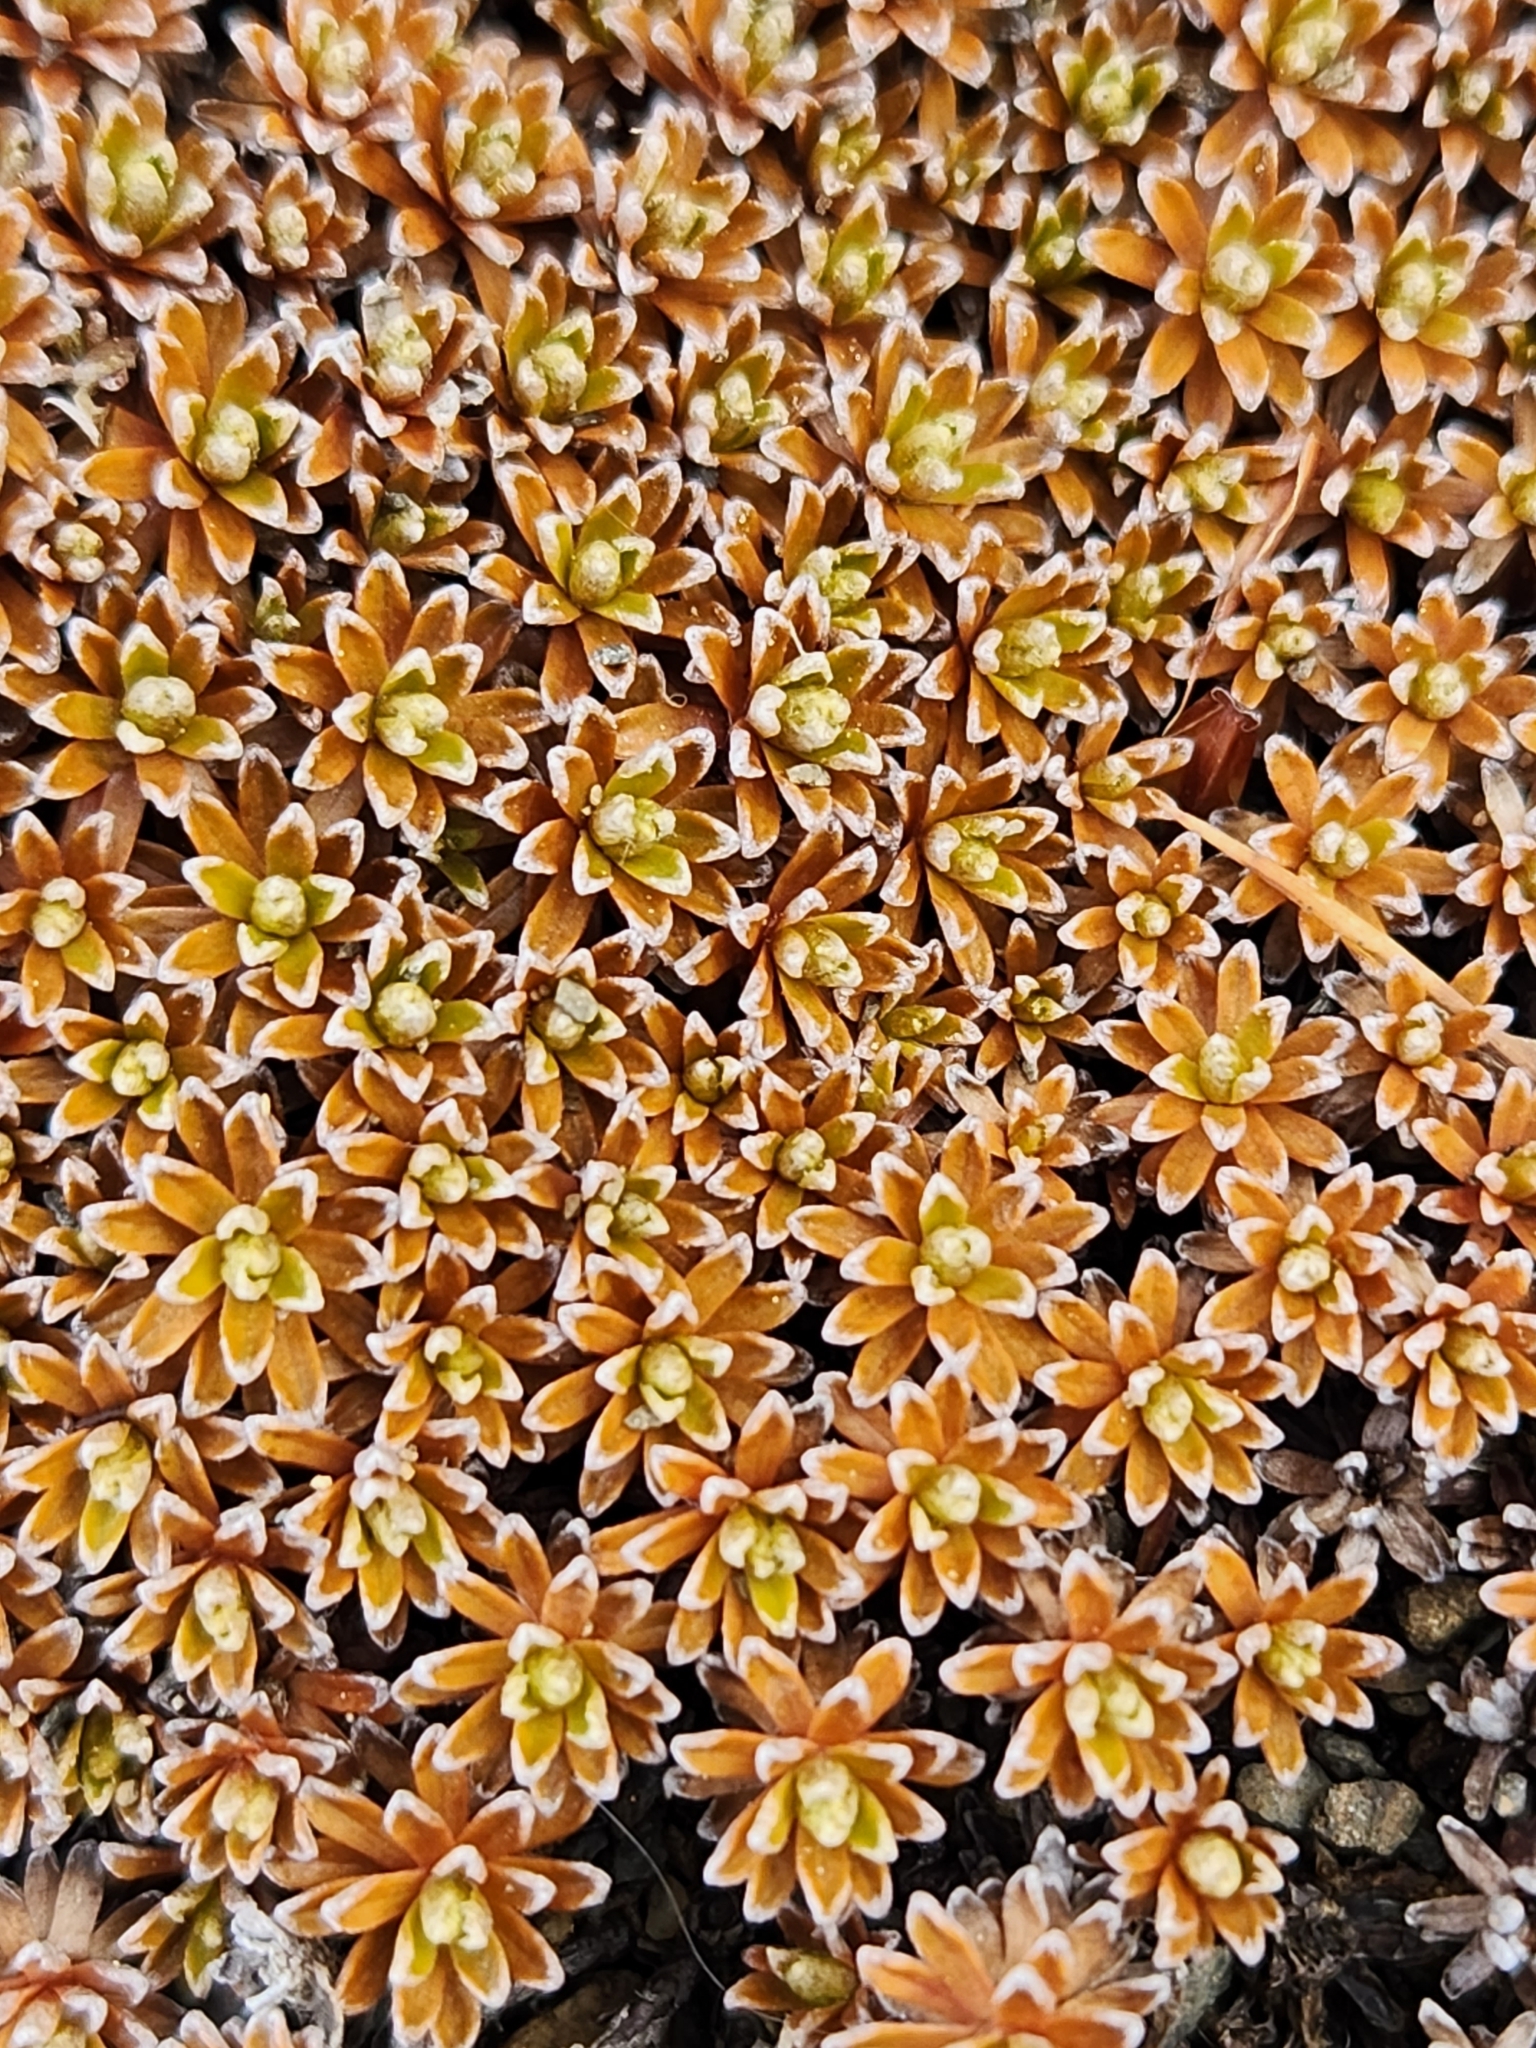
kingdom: Plantae
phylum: Tracheophyta
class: Magnoliopsida
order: Asterales
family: Asteraceae
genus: Raoulia
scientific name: Raoulia subsericea
